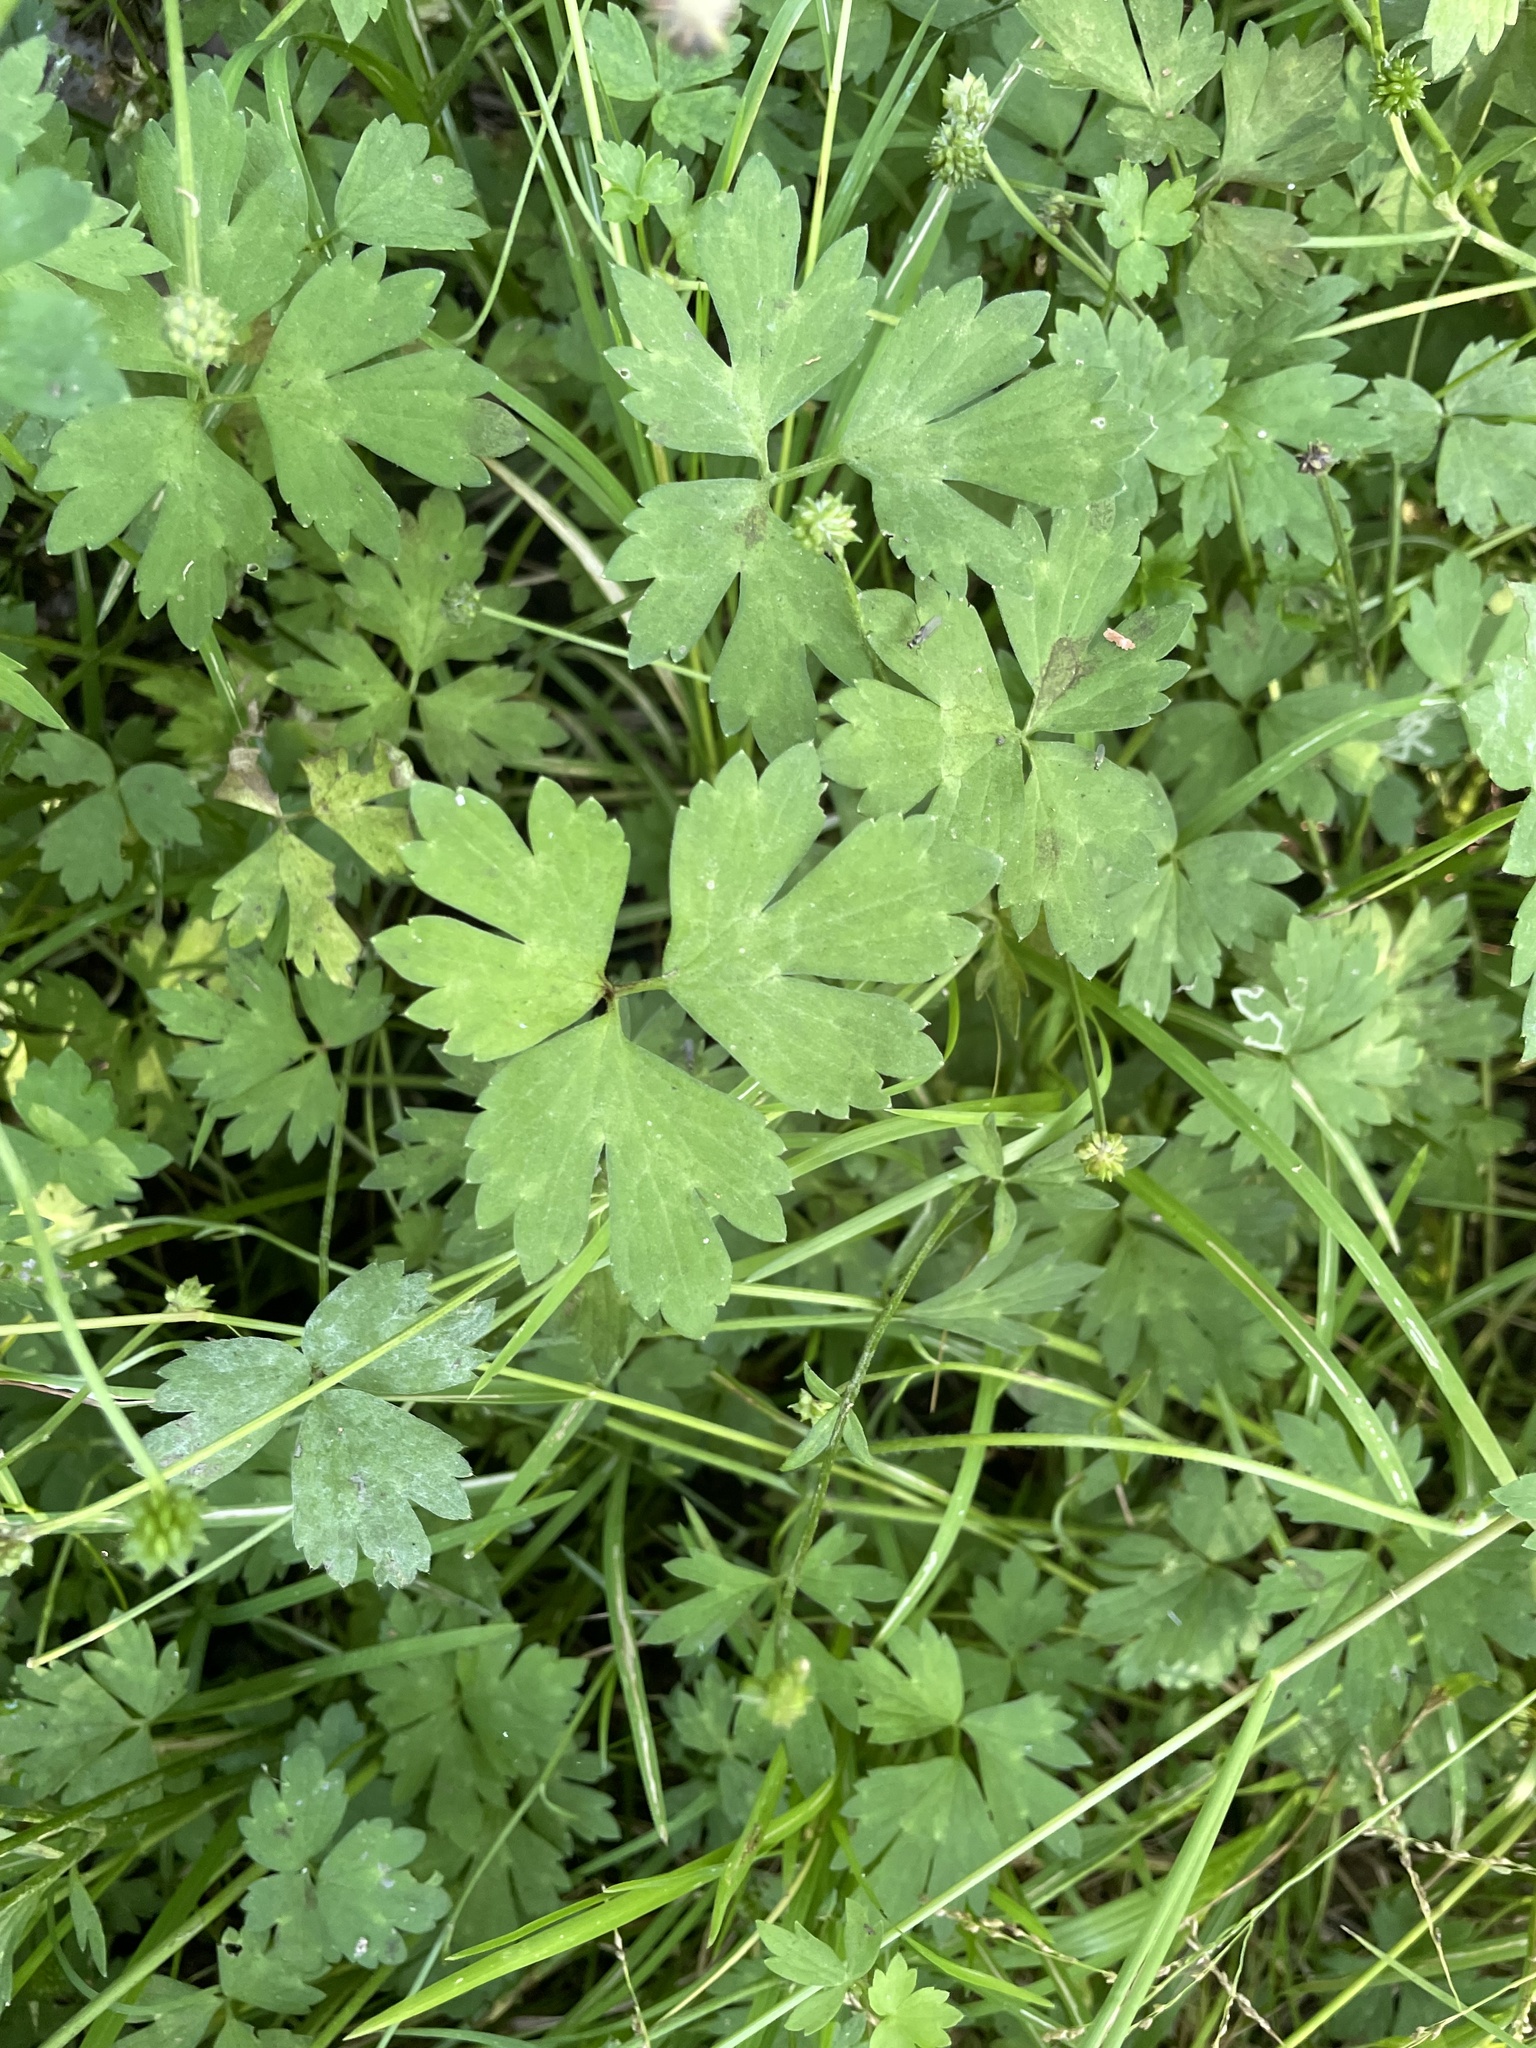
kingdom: Plantae
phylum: Tracheophyta
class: Magnoliopsida
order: Ranunculales
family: Ranunculaceae
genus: Ranunculus
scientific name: Ranunculus repens
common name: Creeping buttercup
